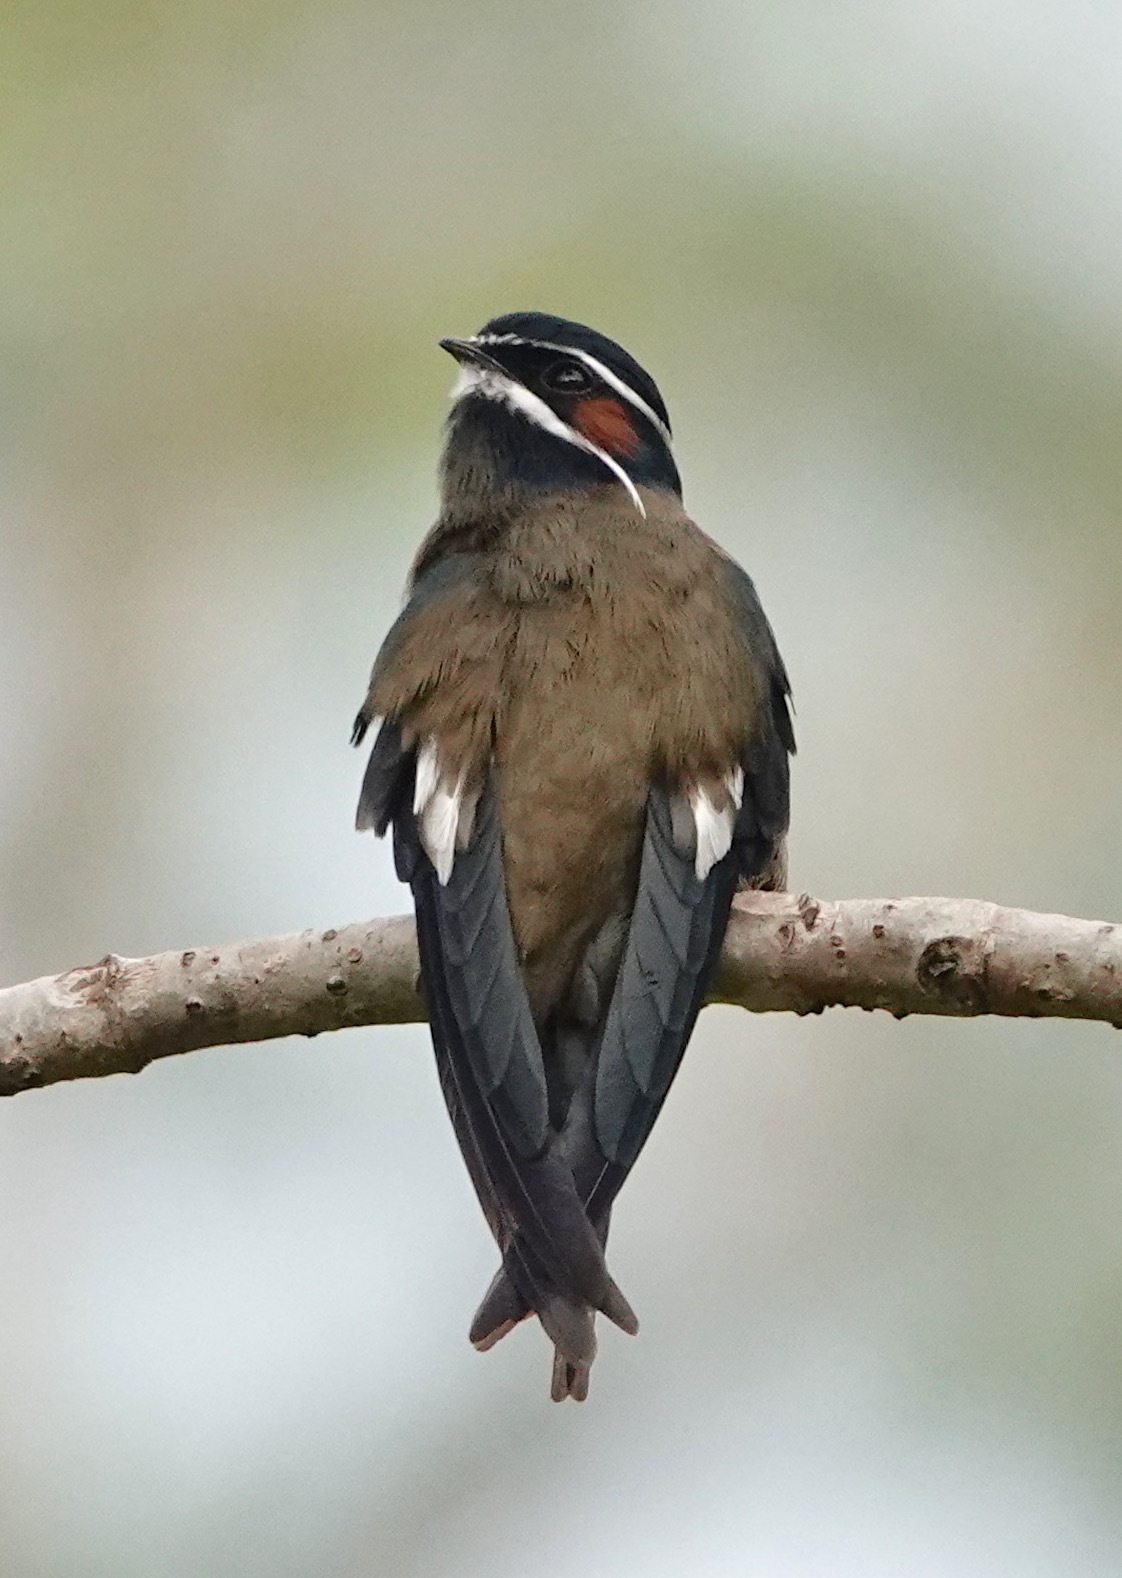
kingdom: Animalia
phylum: Chordata
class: Aves
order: Apodiformes
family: Hemiprocnidae
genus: Hemiprocne
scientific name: Hemiprocne comata
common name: Whiskered treeswift
